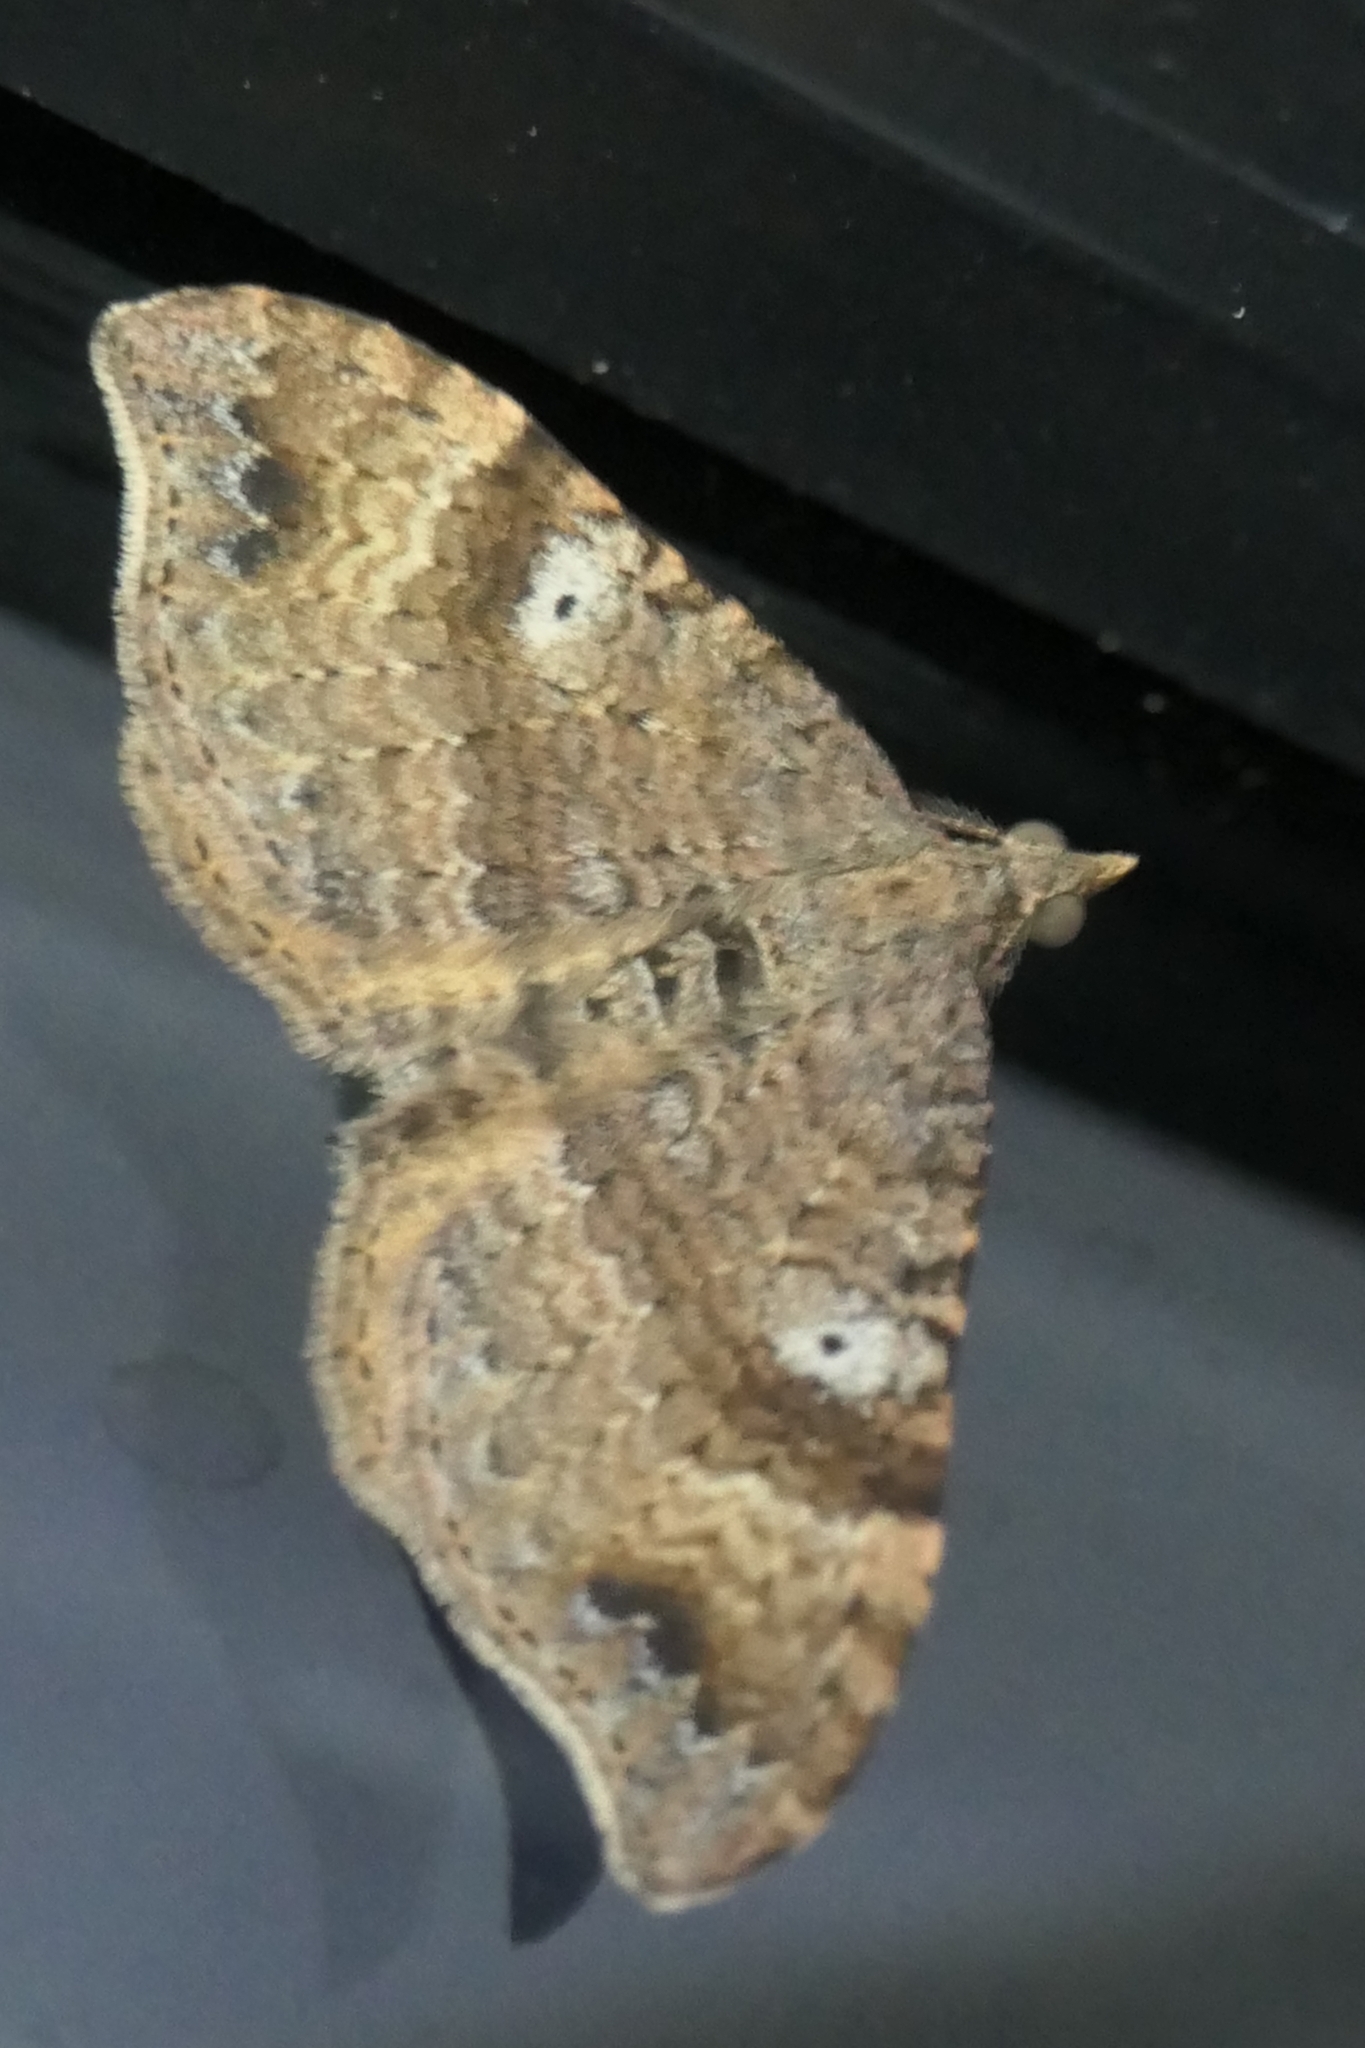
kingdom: Animalia
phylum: Arthropoda
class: Insecta
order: Lepidoptera
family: Geometridae
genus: Homodotis
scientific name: Homodotis megaspilata
